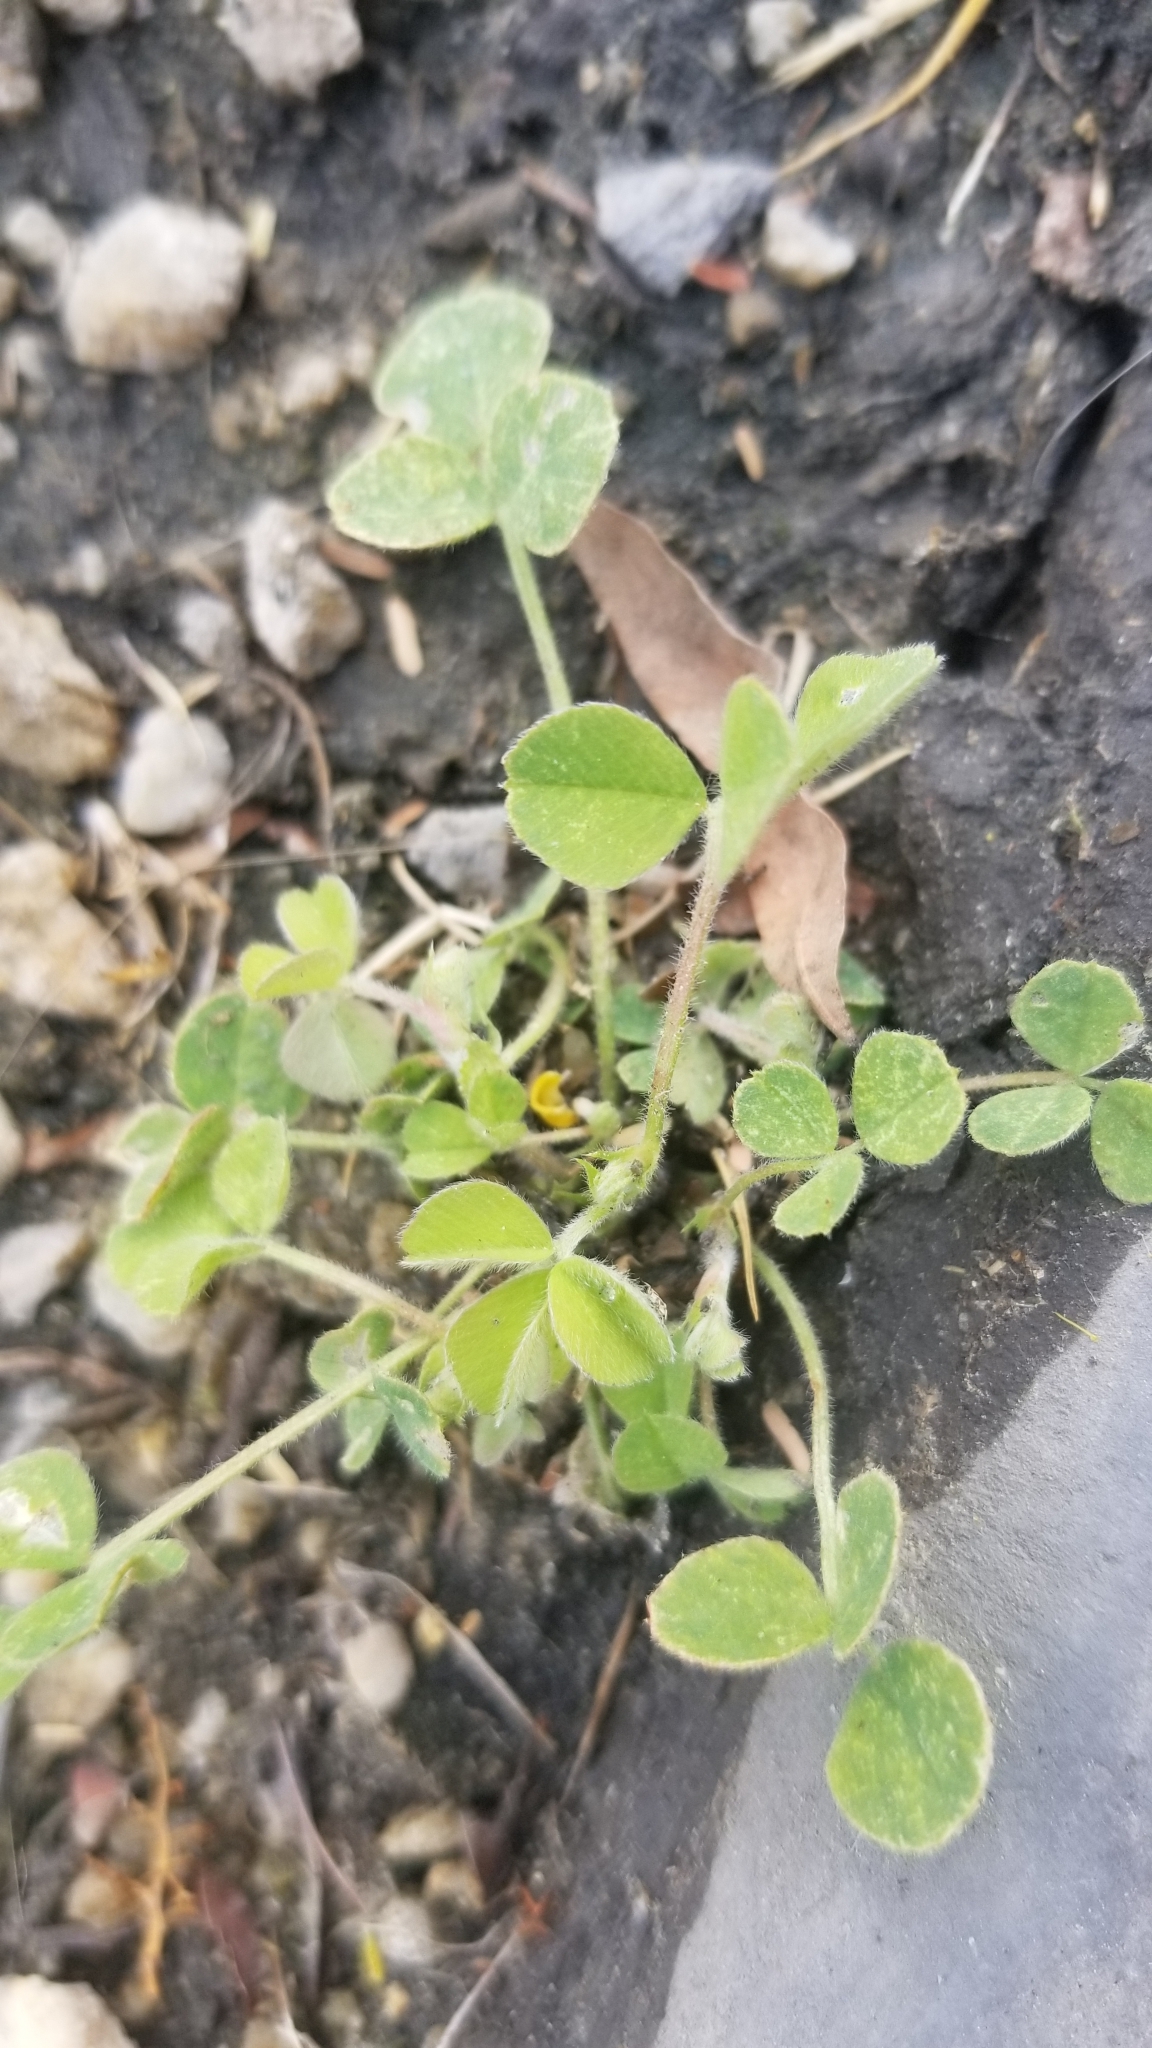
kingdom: Plantae
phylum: Tracheophyta
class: Magnoliopsida
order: Fabales
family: Fabaceae
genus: Medicago
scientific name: Medicago lupulina
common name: Black medick
